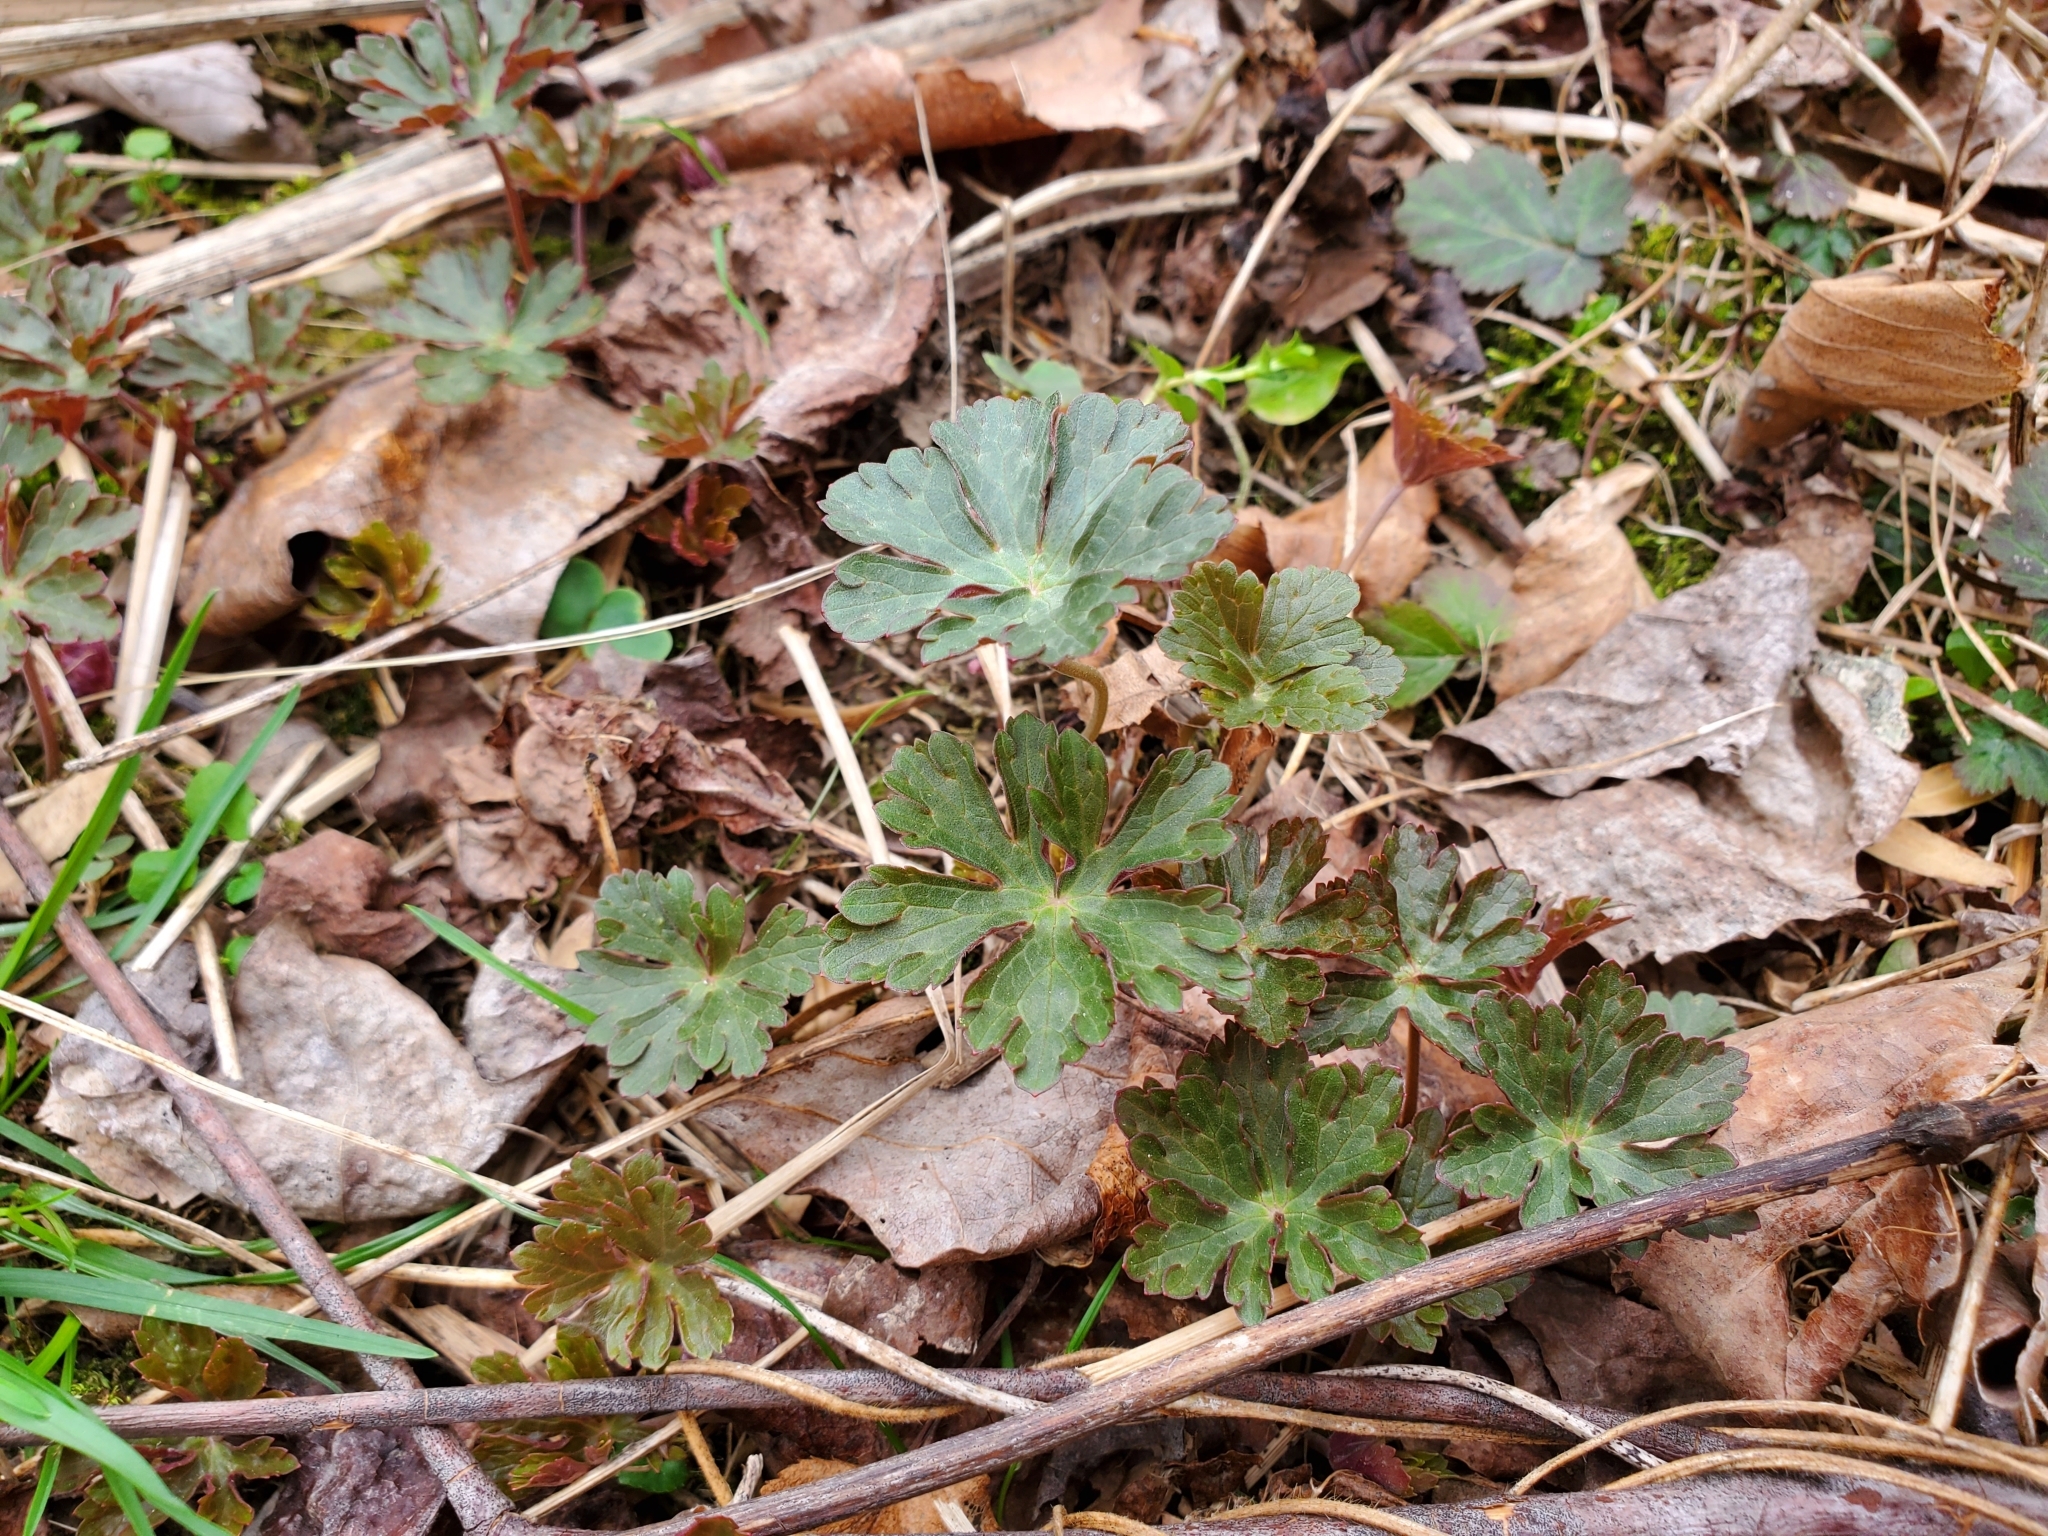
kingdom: Plantae
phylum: Tracheophyta
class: Magnoliopsida
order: Geraniales
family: Geraniaceae
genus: Geranium
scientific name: Geranium maculatum
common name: Spotted geranium
